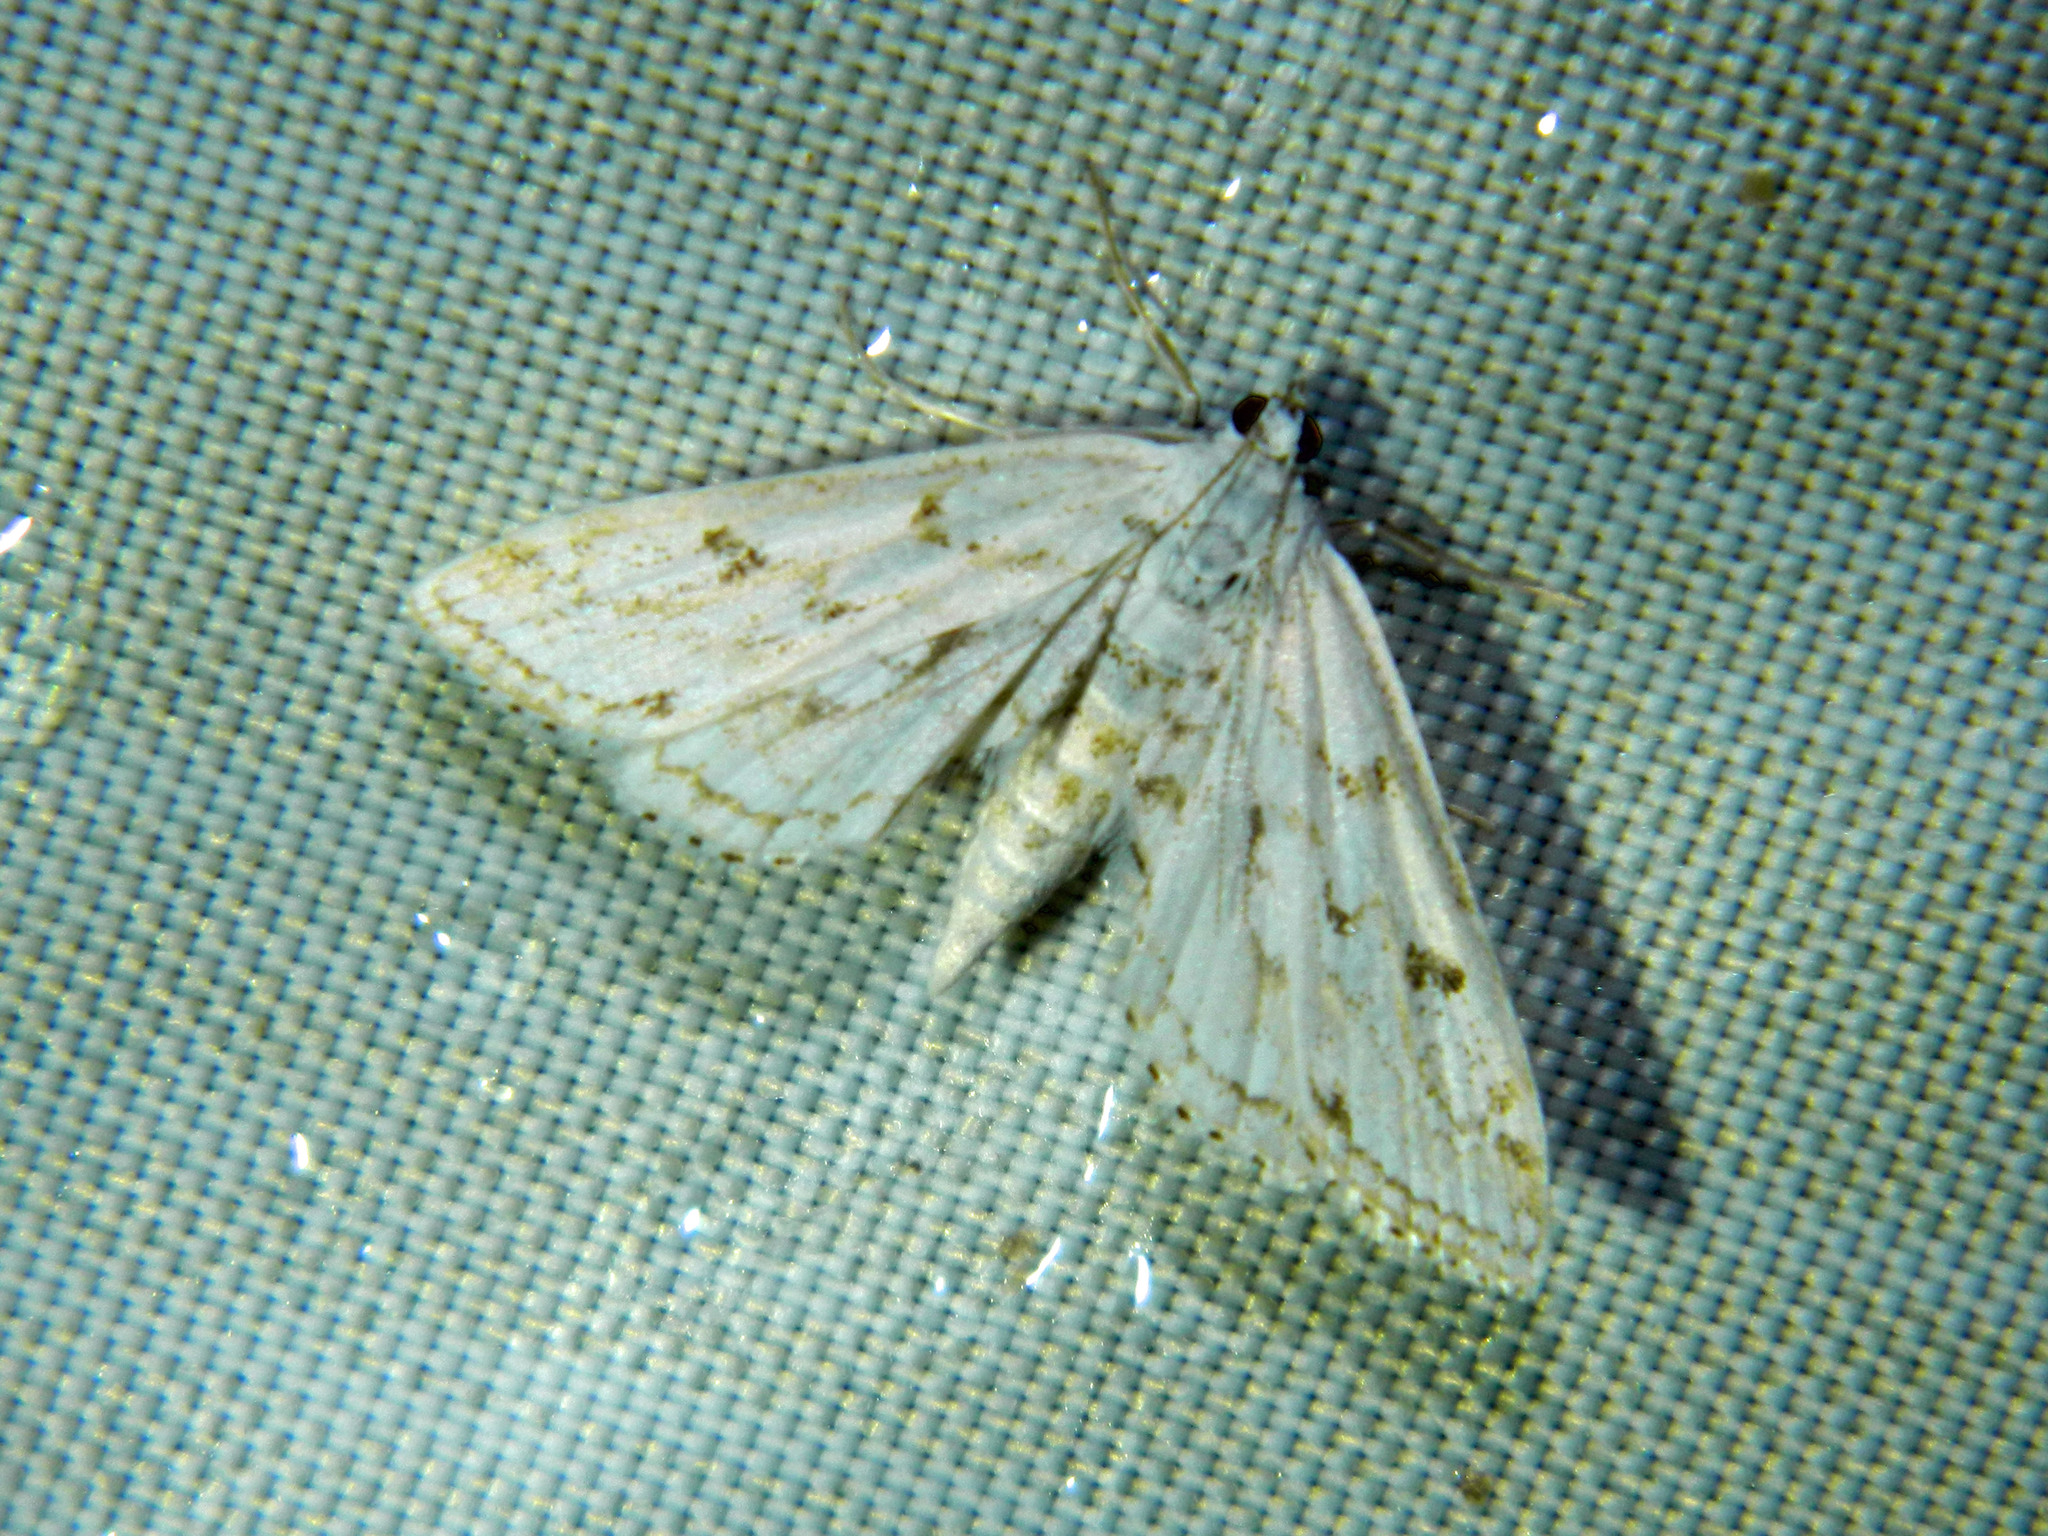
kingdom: Animalia
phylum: Arthropoda
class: Insecta
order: Lepidoptera
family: Crambidae
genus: Parapoynx
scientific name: Parapoynx allionealis
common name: Bladderwort casemaker
